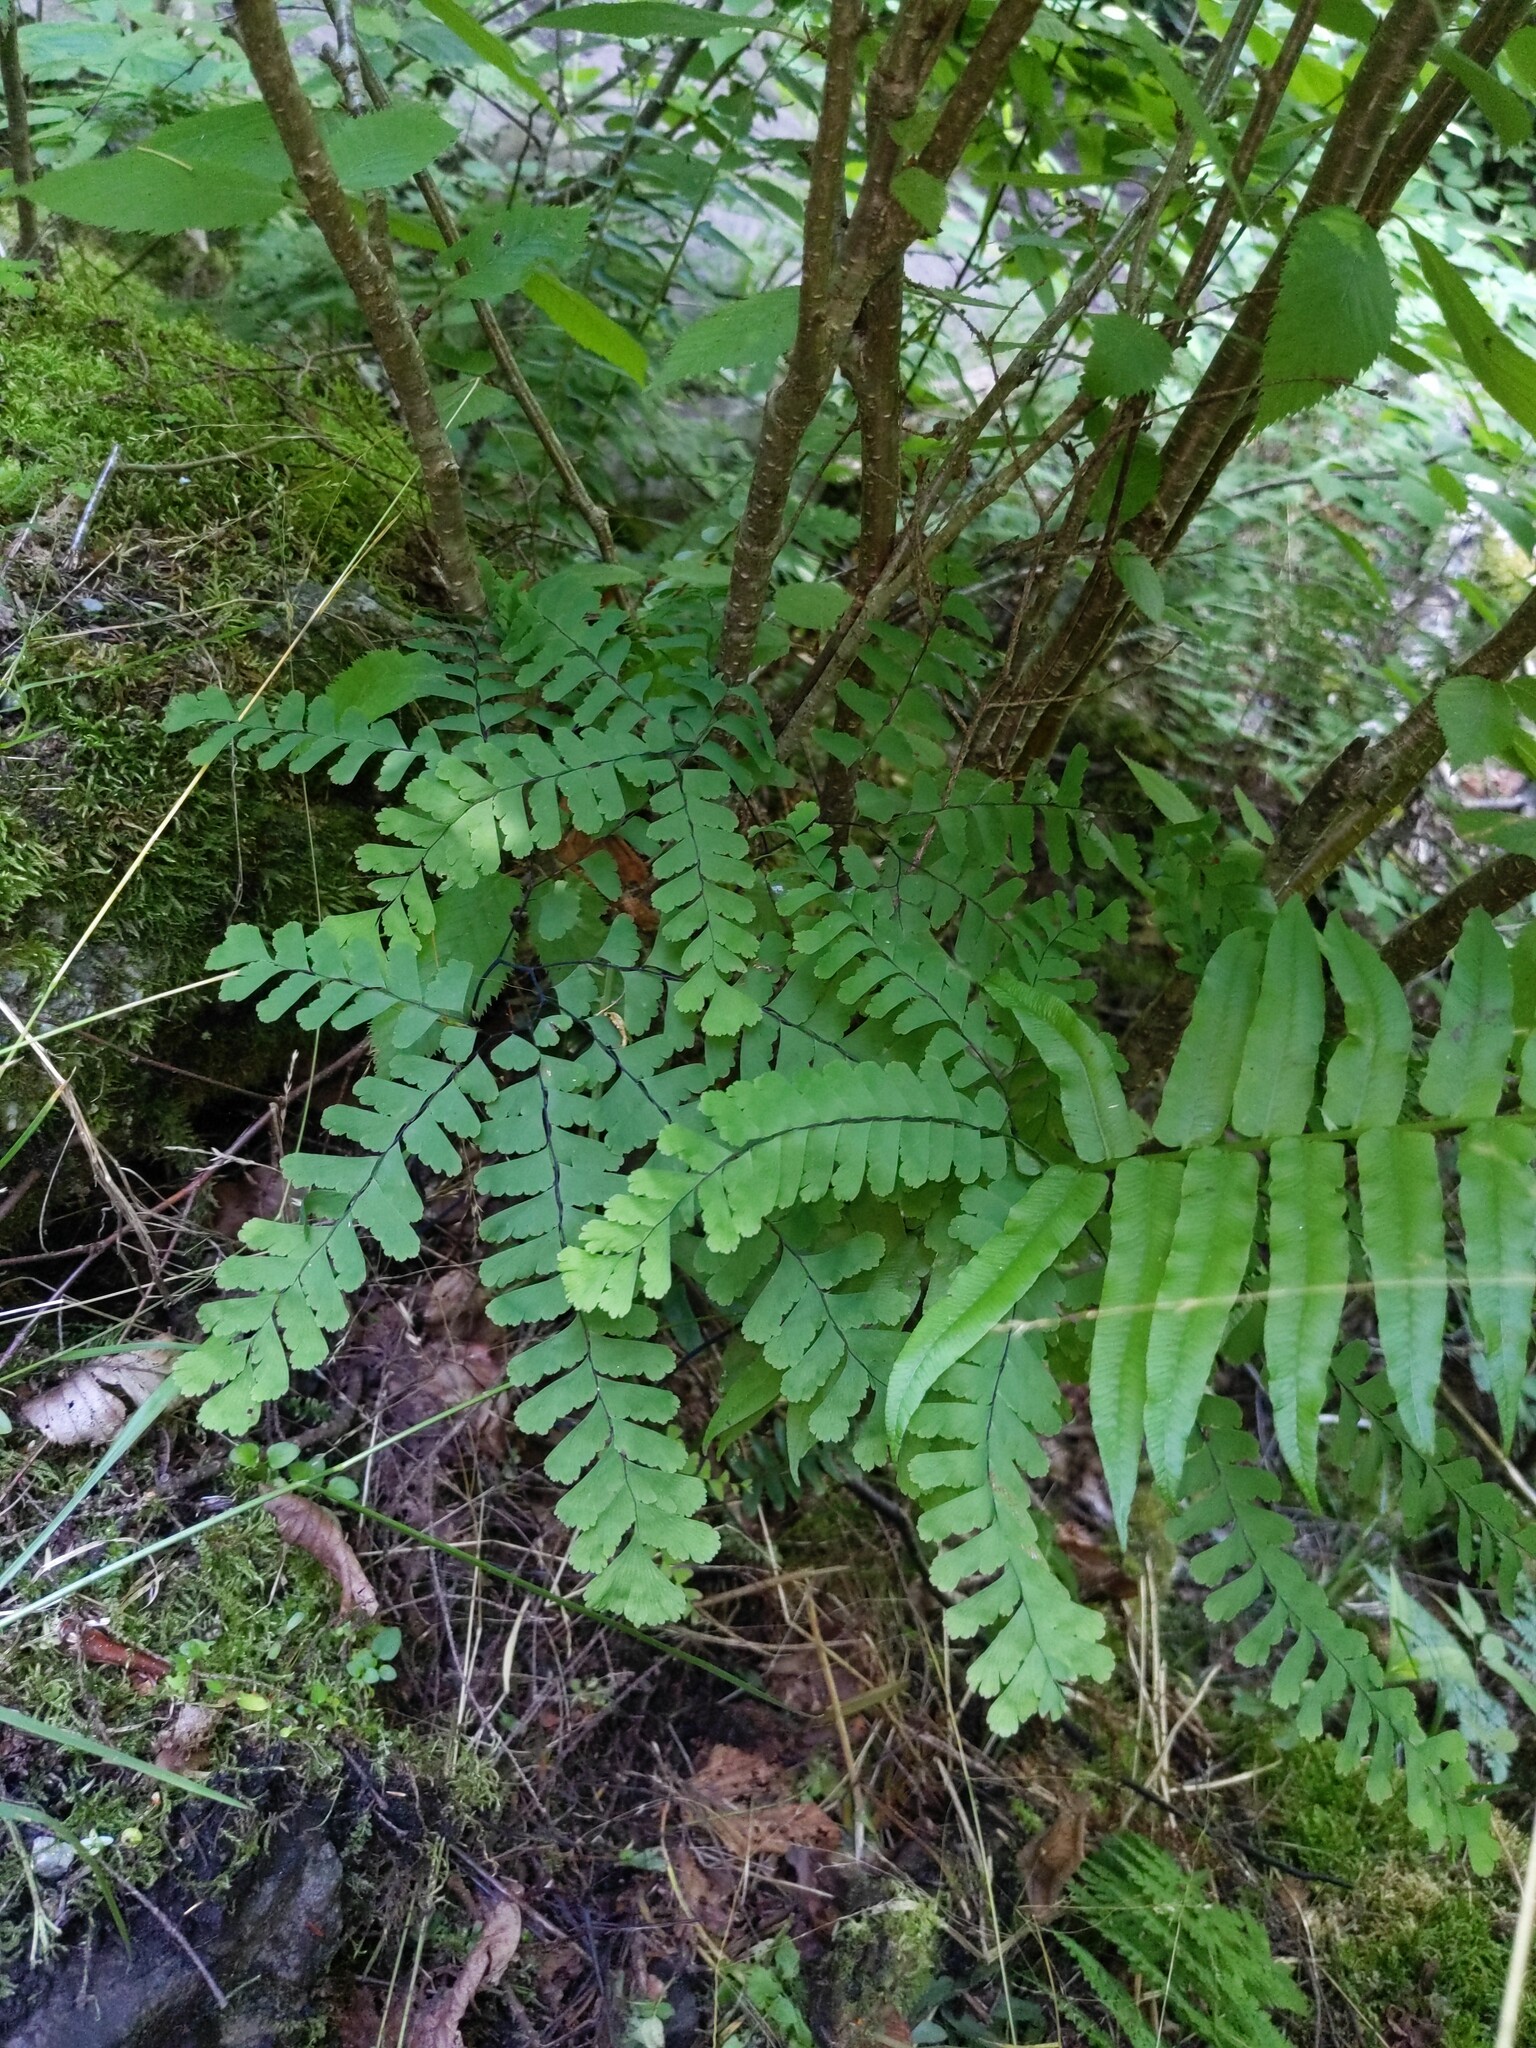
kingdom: Plantae
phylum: Tracheophyta
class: Polypodiopsida
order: Polypodiales
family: Pteridaceae
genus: Adiantum
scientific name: Adiantum pedatum
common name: Five-finger fern
